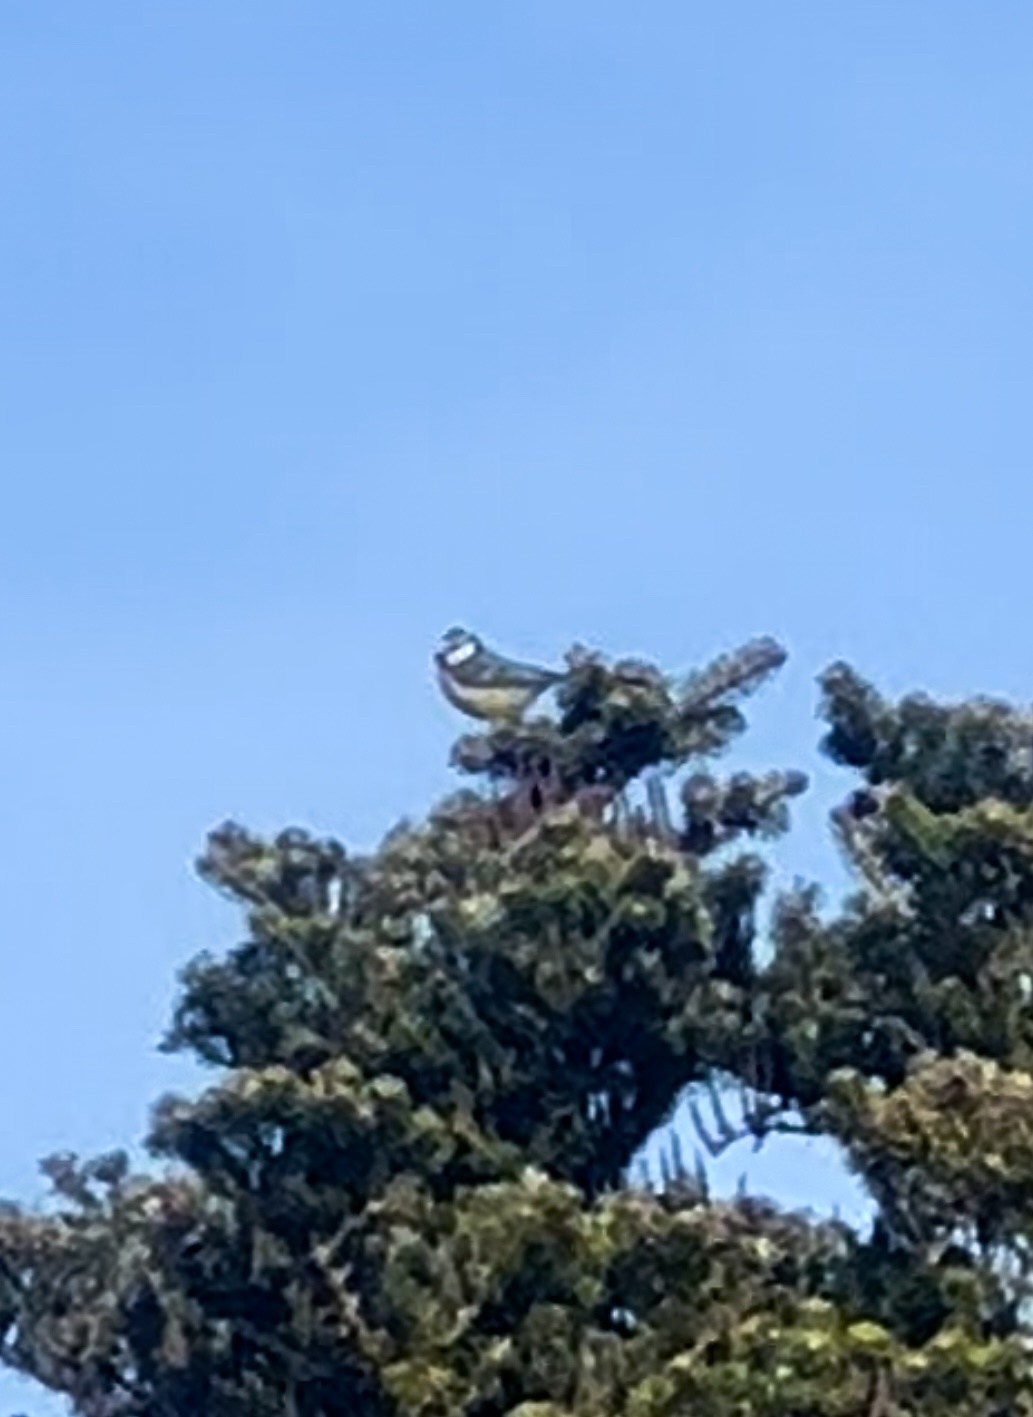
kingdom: Animalia
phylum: Chordata
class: Aves
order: Passeriformes
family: Paridae
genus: Cyanistes
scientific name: Cyanistes caeruleus
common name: Eurasian blue tit
